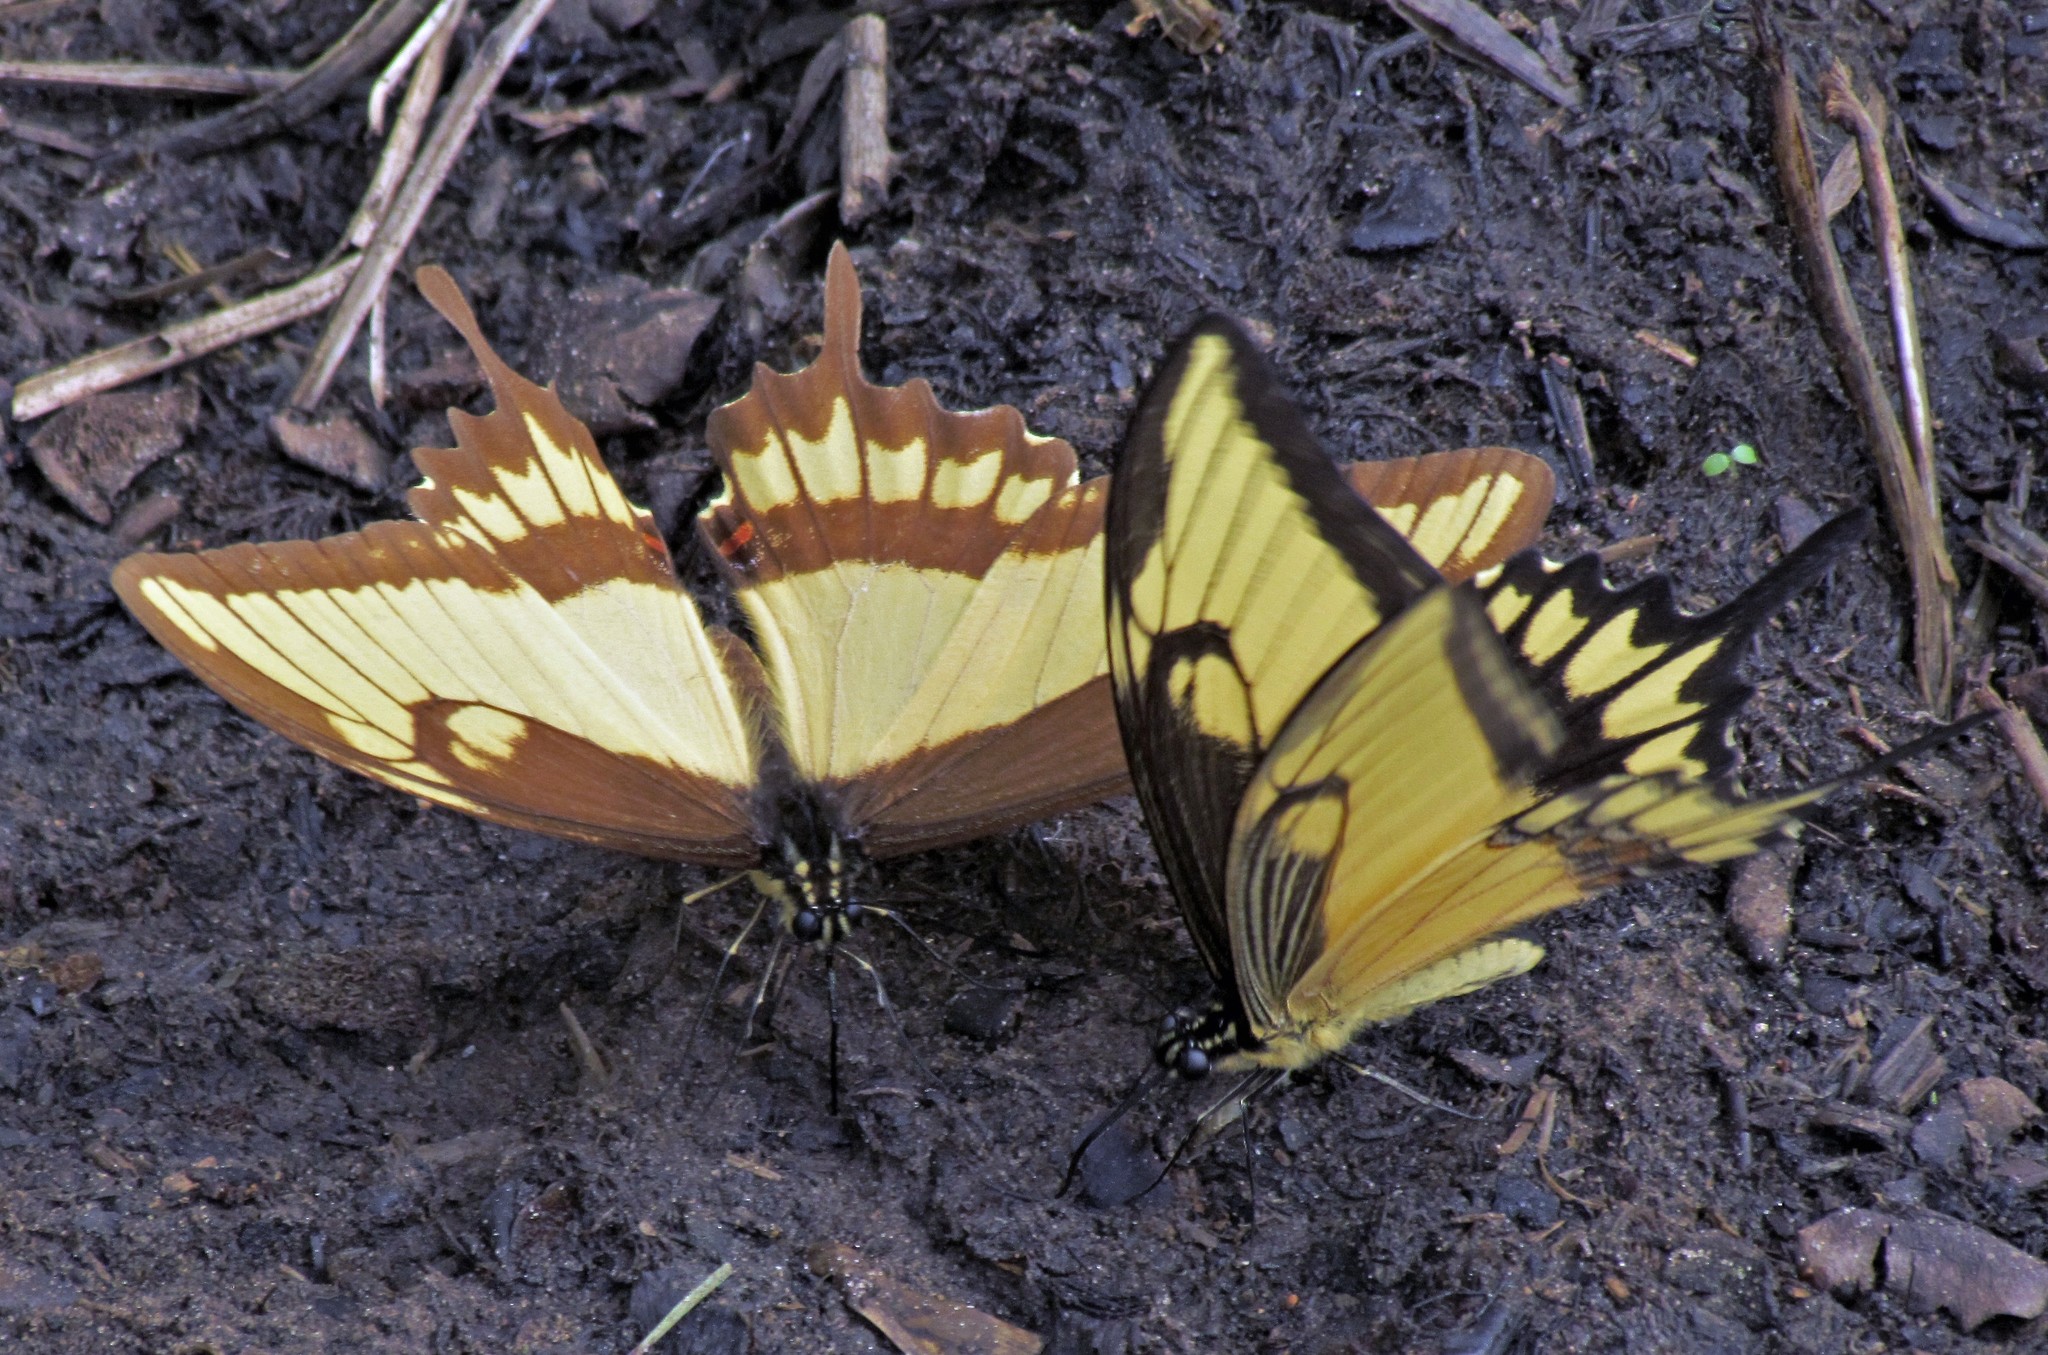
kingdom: Animalia
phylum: Arthropoda
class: Insecta
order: Lepidoptera
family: Papilionidae
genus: Papilio
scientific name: Papilio astyalus
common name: Astyalus swallowtail
